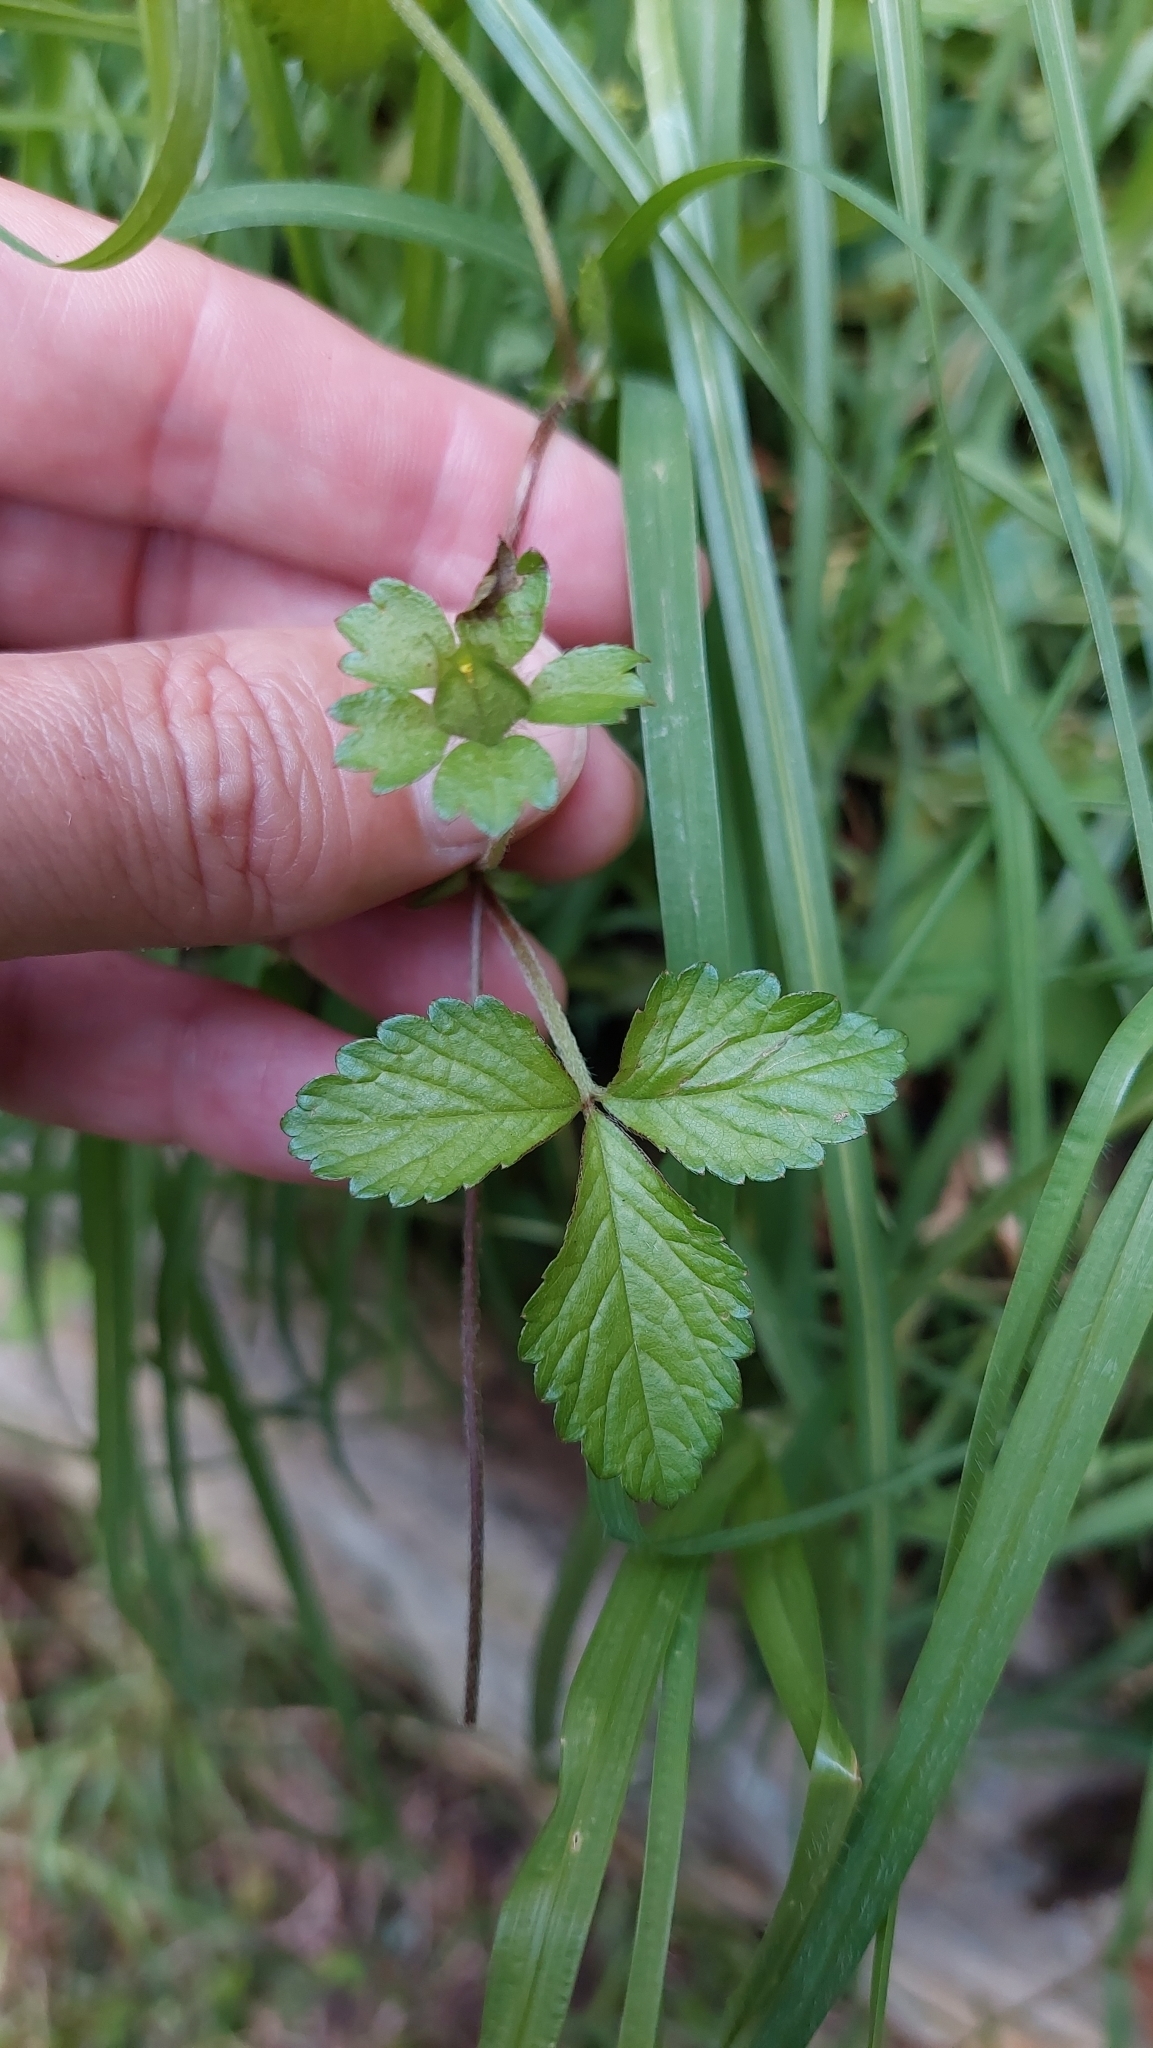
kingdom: Plantae
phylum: Tracheophyta
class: Magnoliopsida
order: Rosales
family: Rosaceae
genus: Potentilla
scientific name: Potentilla indica
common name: Yellow-flowered strawberry
